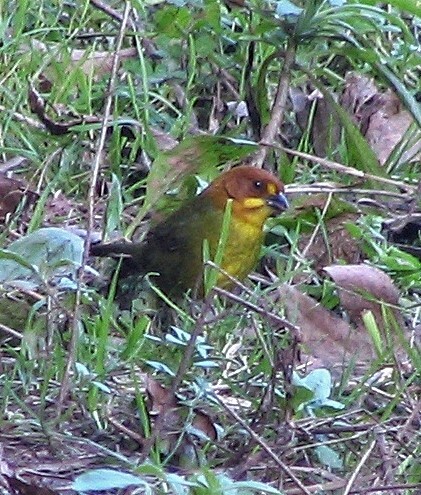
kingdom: Animalia
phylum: Chordata
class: Aves
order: Passeriformes
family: Passerellidae
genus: Atlapetes
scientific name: Atlapetes fulviceps
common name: Fulvous-headed brushfinch
